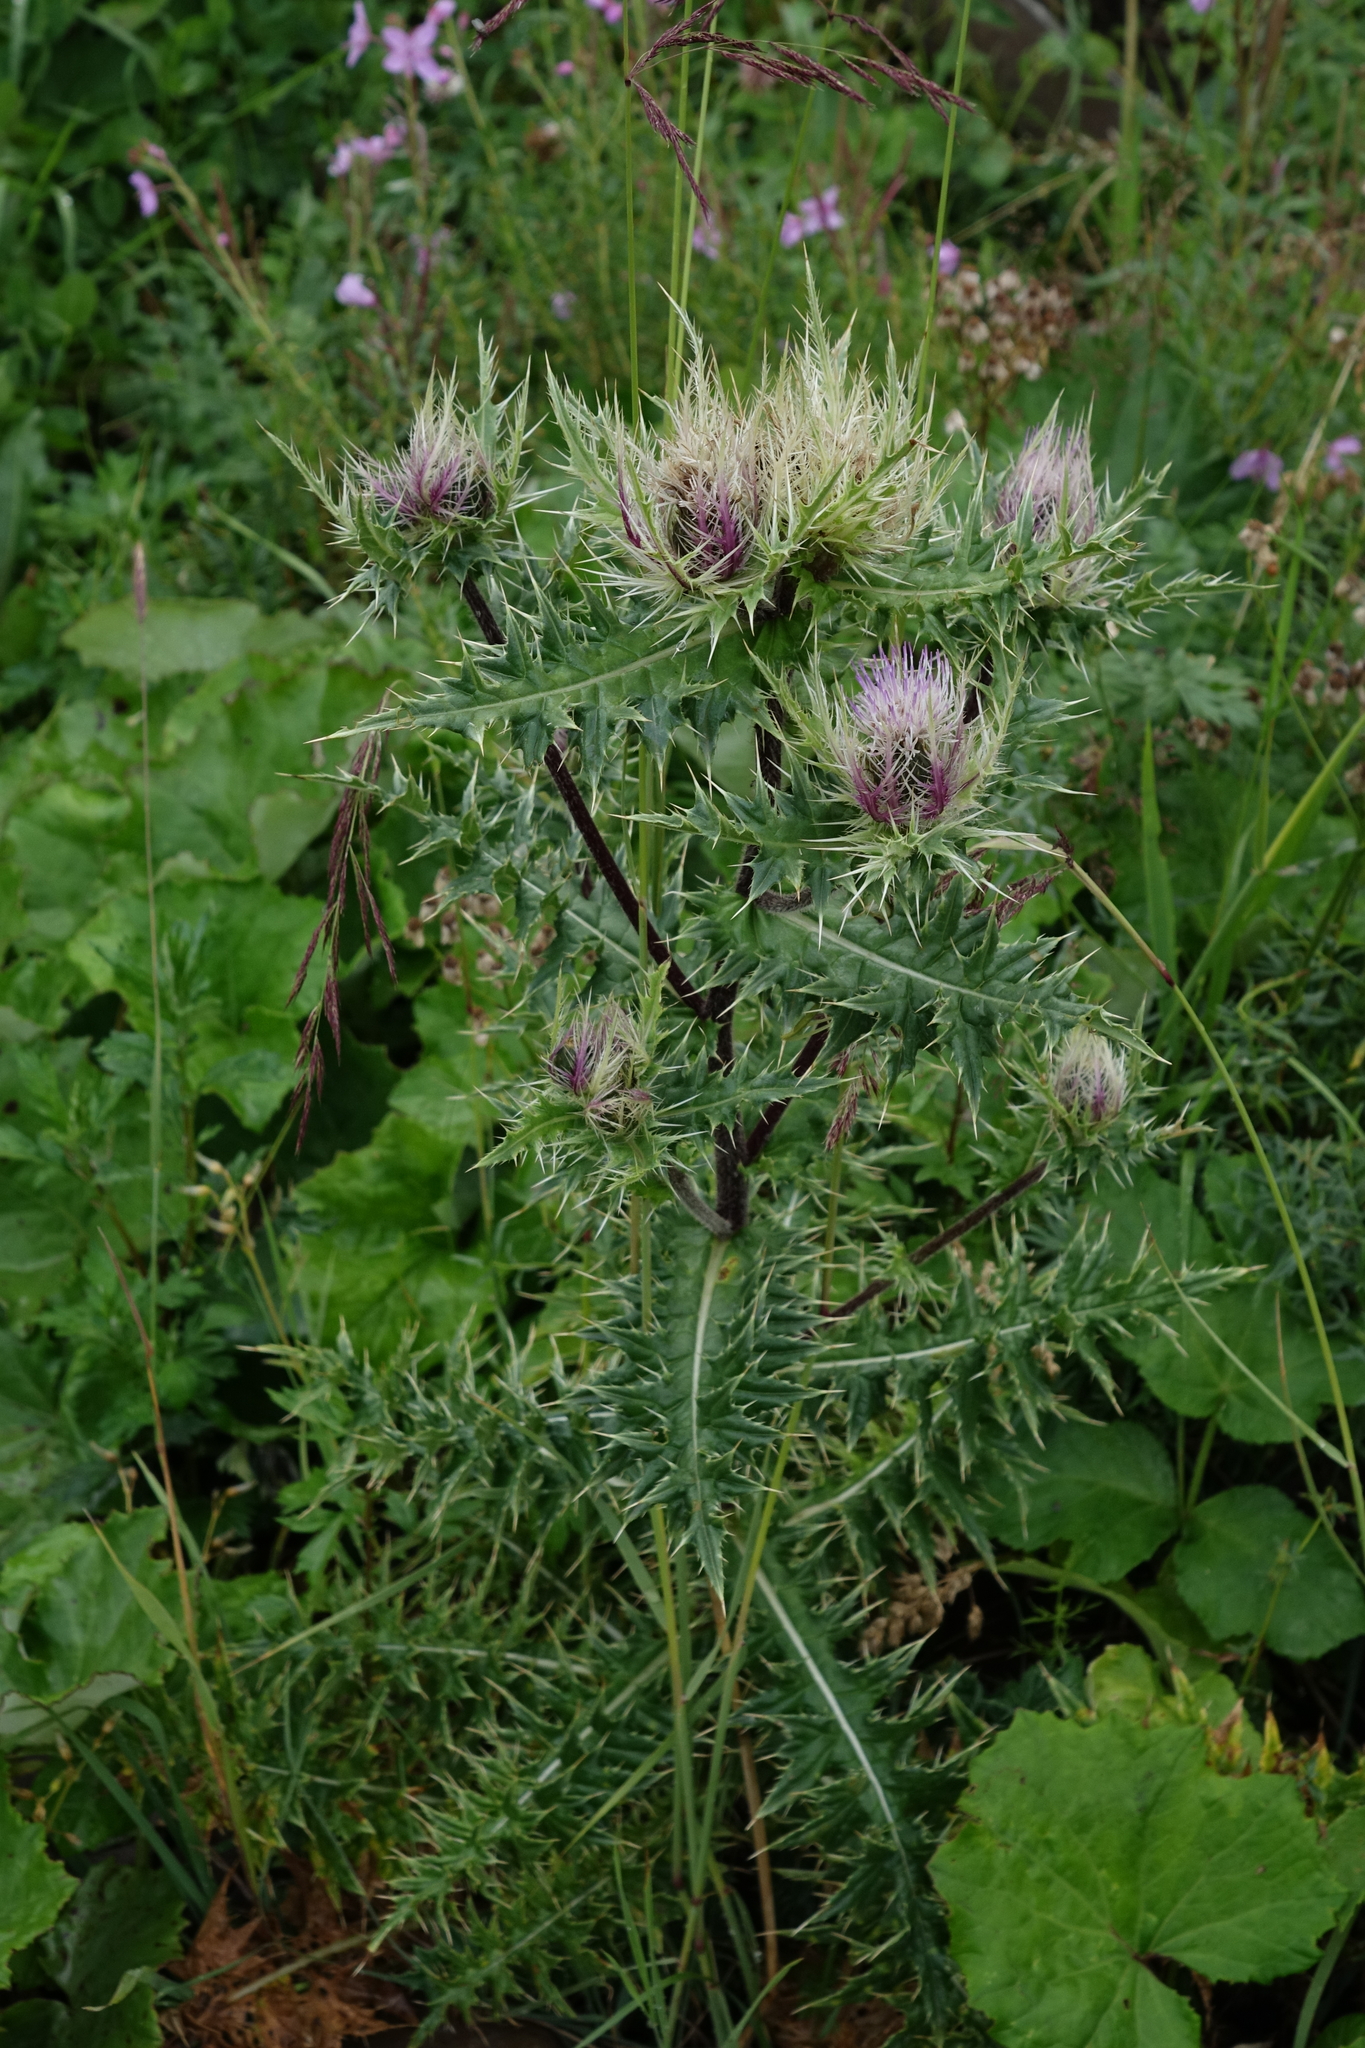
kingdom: Plantae
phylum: Tracheophyta
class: Magnoliopsida
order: Asterales
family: Asteraceae
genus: Cirsium
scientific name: Cirsium obvallatum
